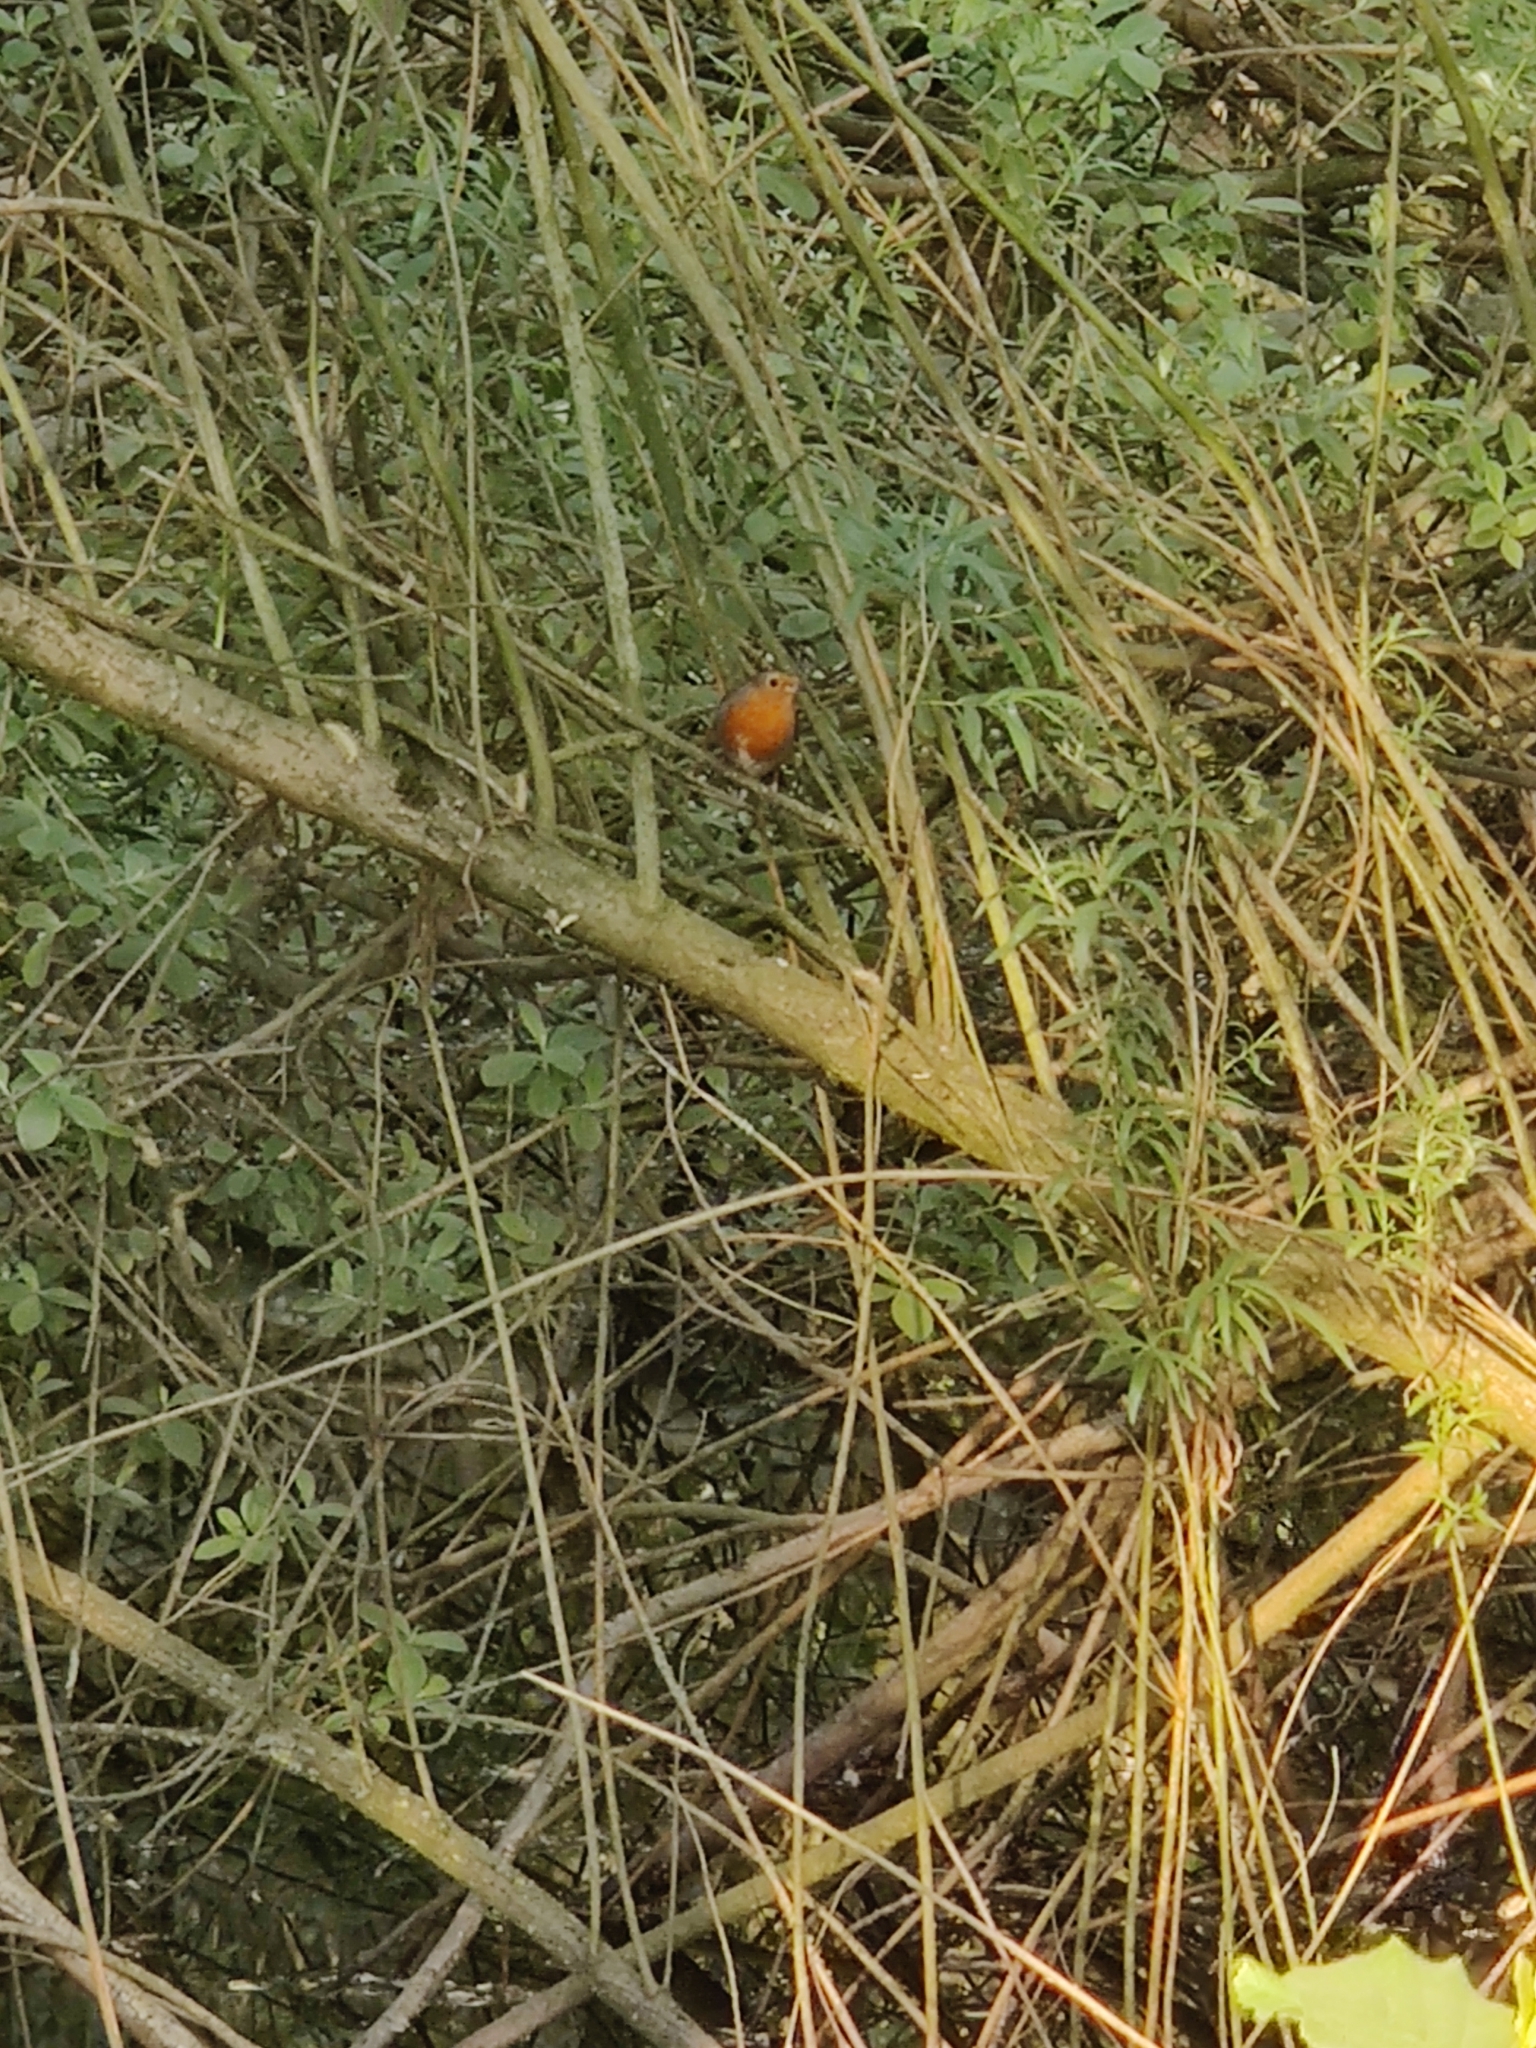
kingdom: Animalia
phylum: Chordata
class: Aves
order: Passeriformes
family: Muscicapidae
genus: Erithacus
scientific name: Erithacus rubecula
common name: European robin
